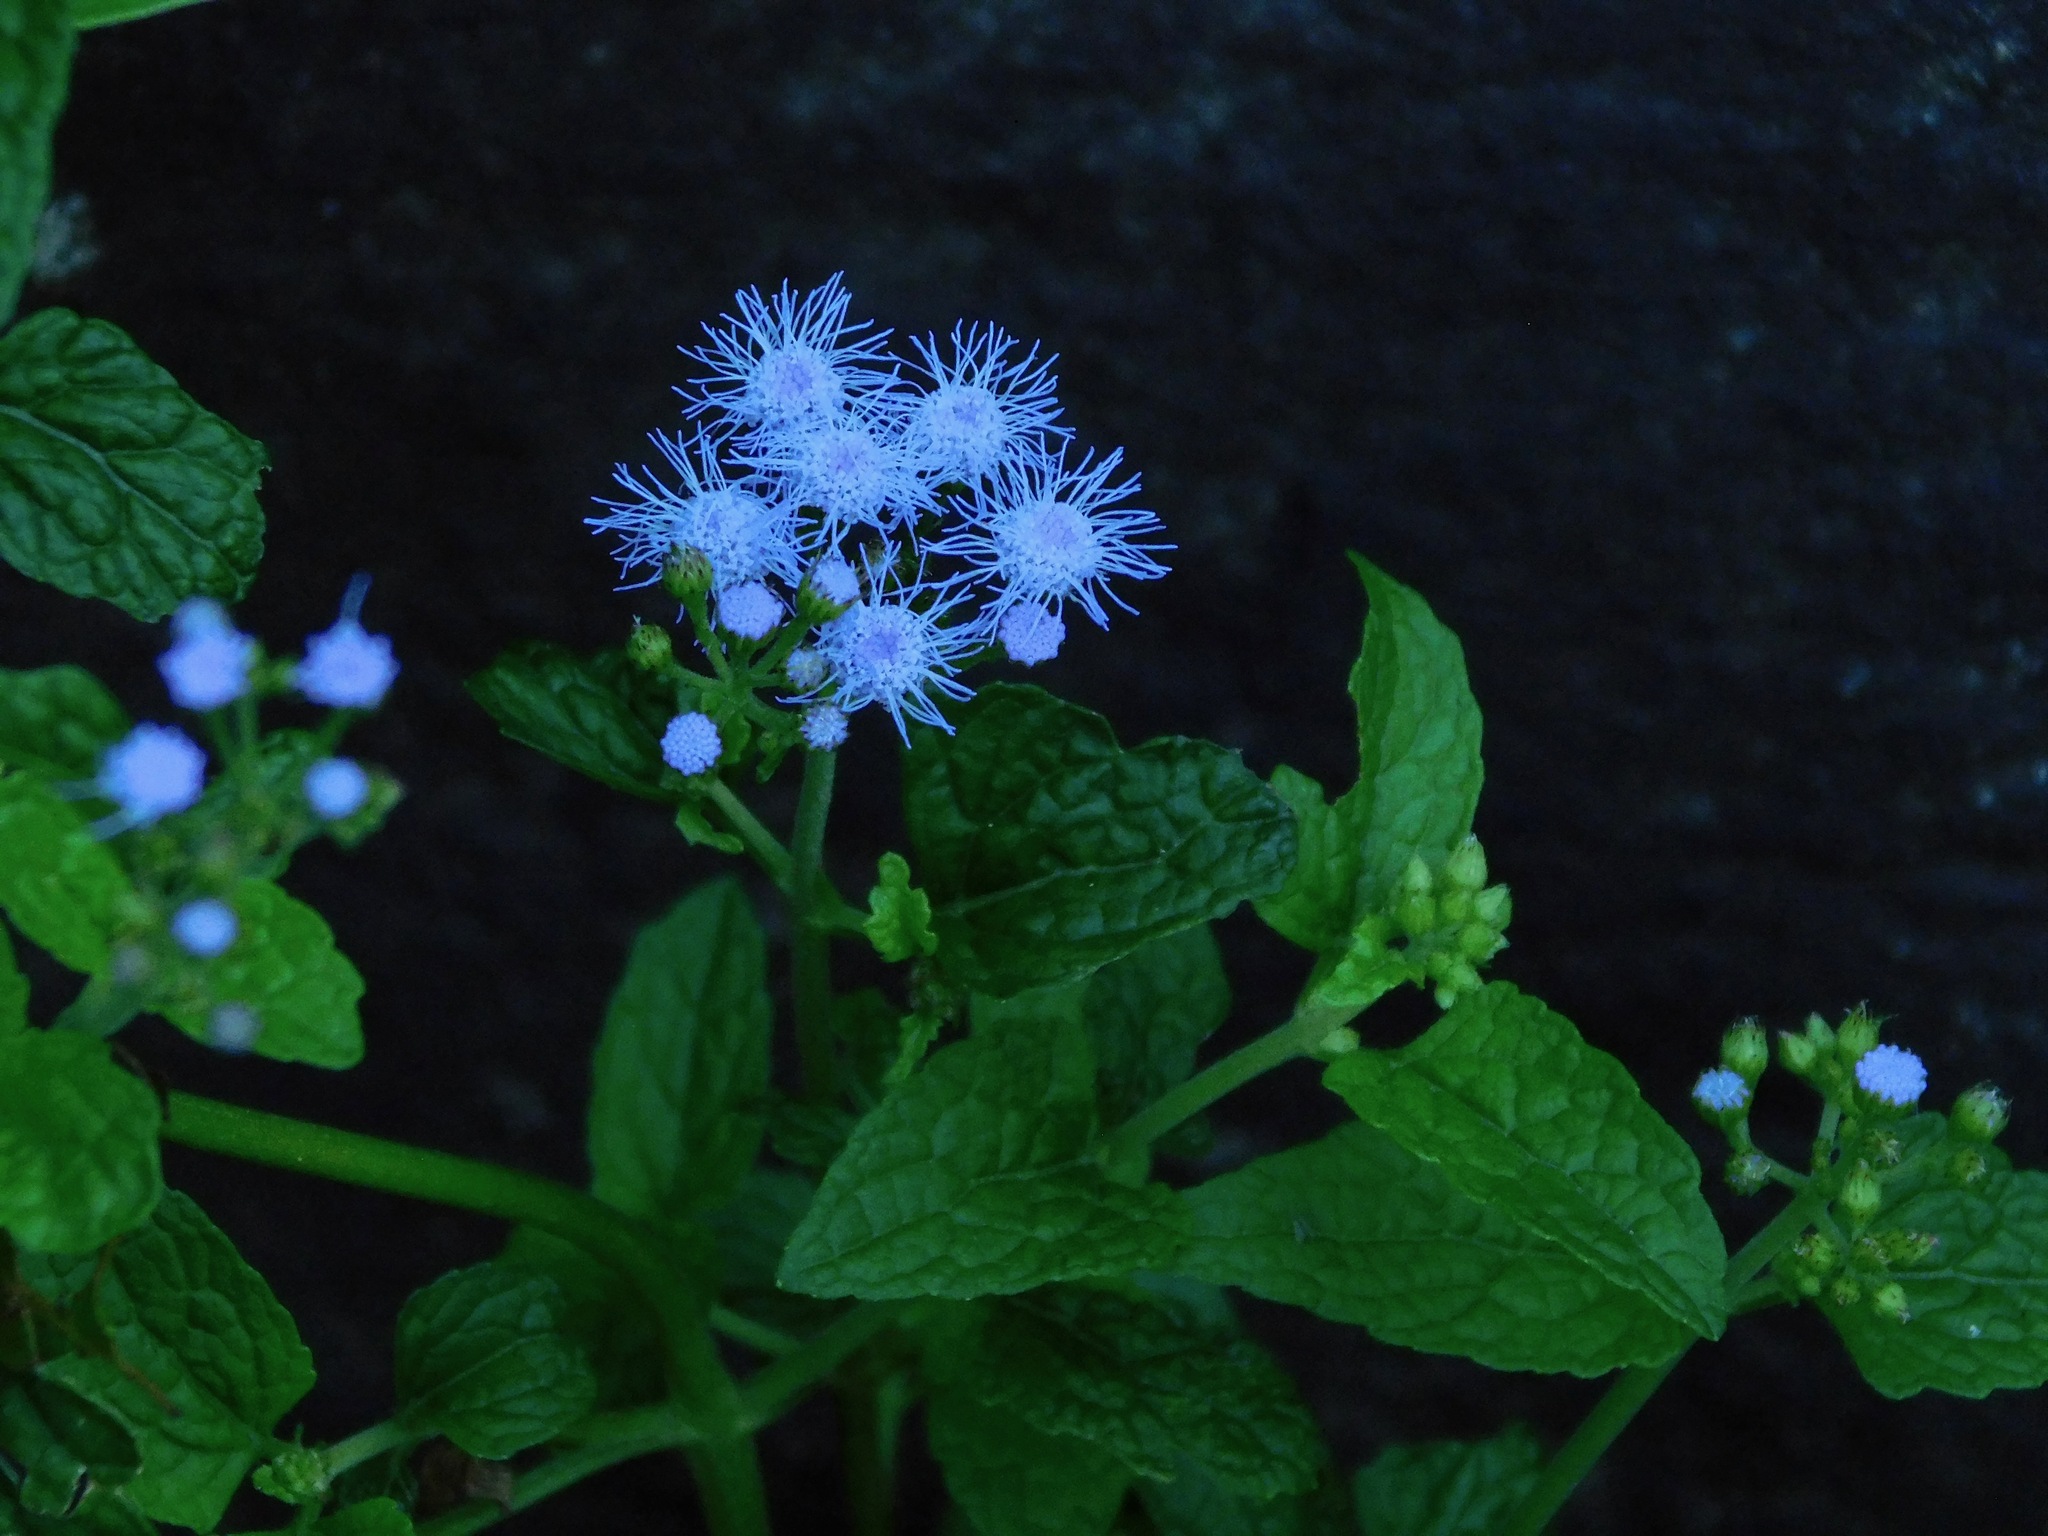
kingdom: Plantae
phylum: Tracheophyta
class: Magnoliopsida
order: Asterales
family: Asteraceae
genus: Conoclinium
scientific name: Conoclinium coelestinum
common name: Blue mistflower
